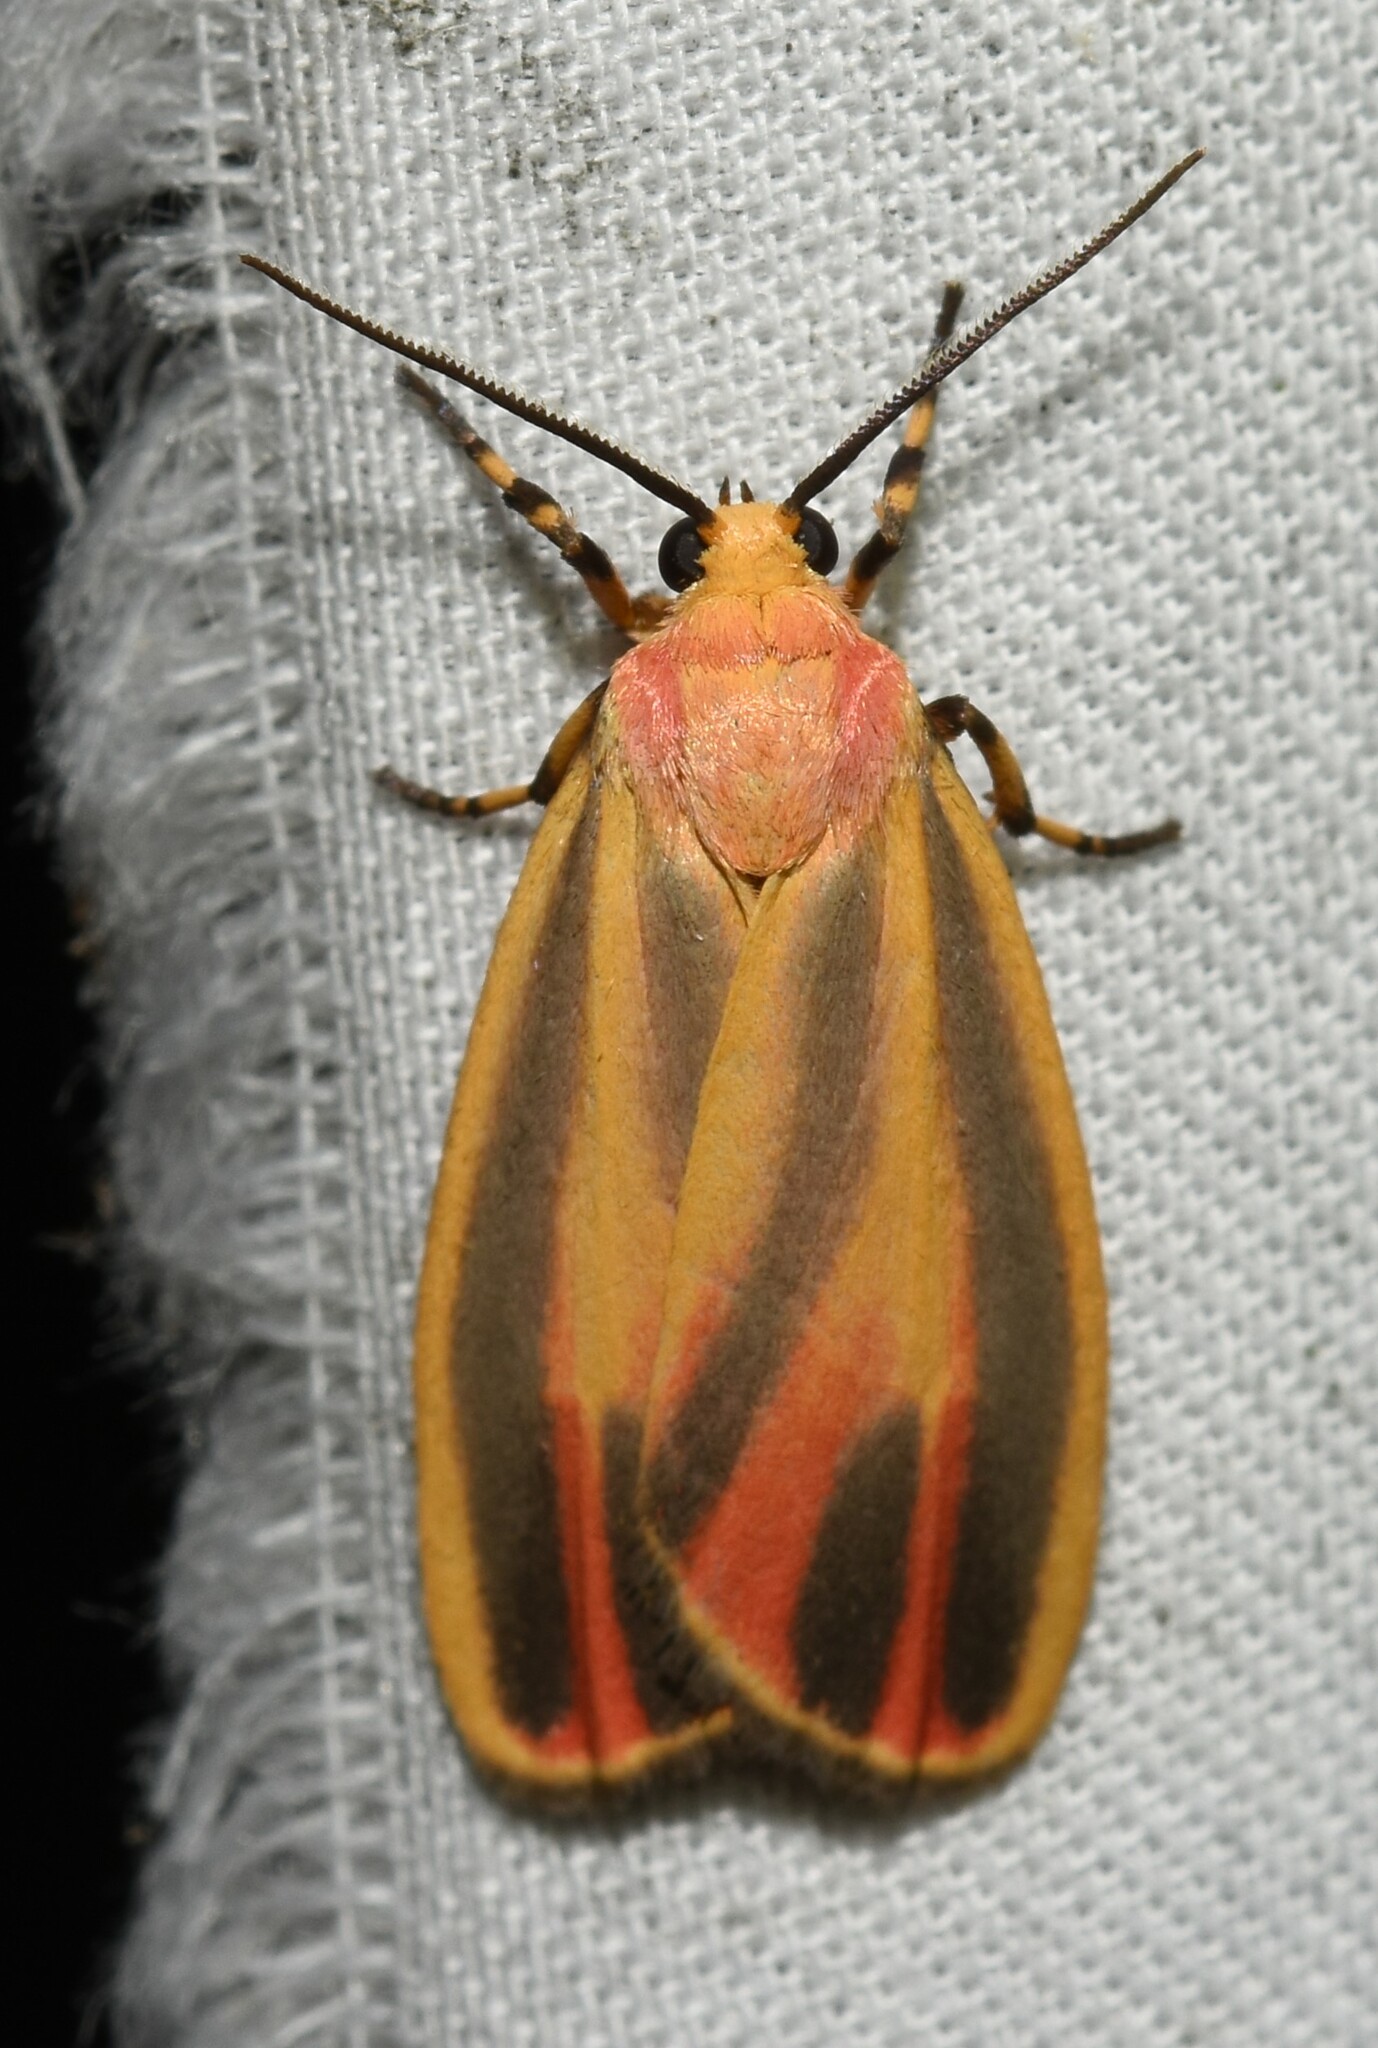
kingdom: Animalia
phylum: Arthropoda
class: Insecta
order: Lepidoptera
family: Erebidae
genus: Hypoprepia
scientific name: Hypoprepia fucosa
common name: Painted lichen moth
